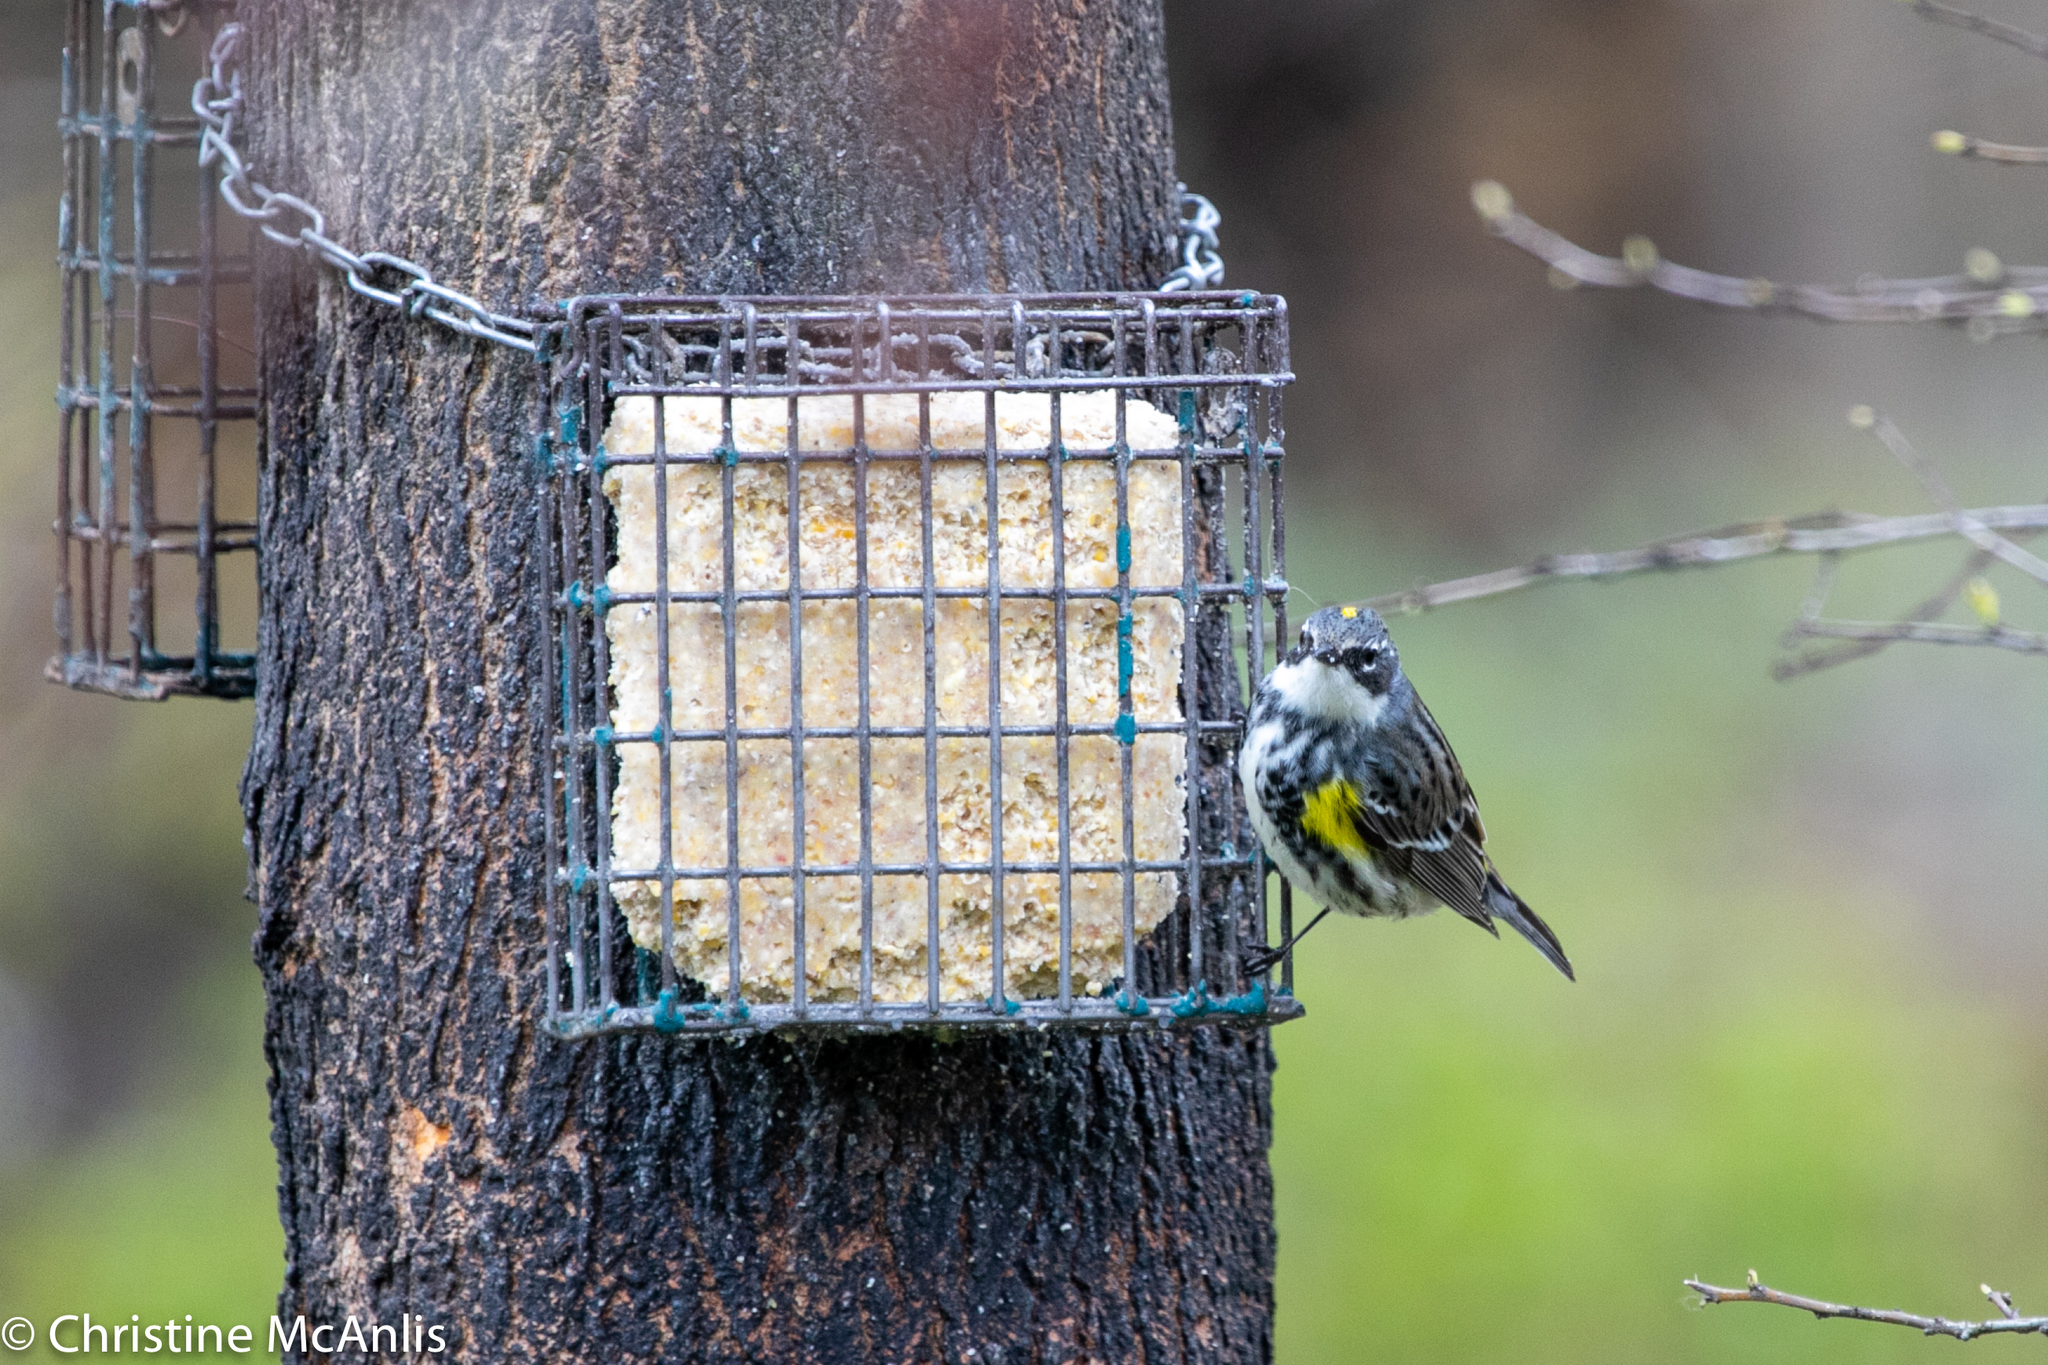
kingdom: Animalia
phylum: Chordata
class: Aves
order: Passeriformes
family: Parulidae
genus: Setophaga
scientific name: Setophaga coronata
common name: Myrtle warbler
